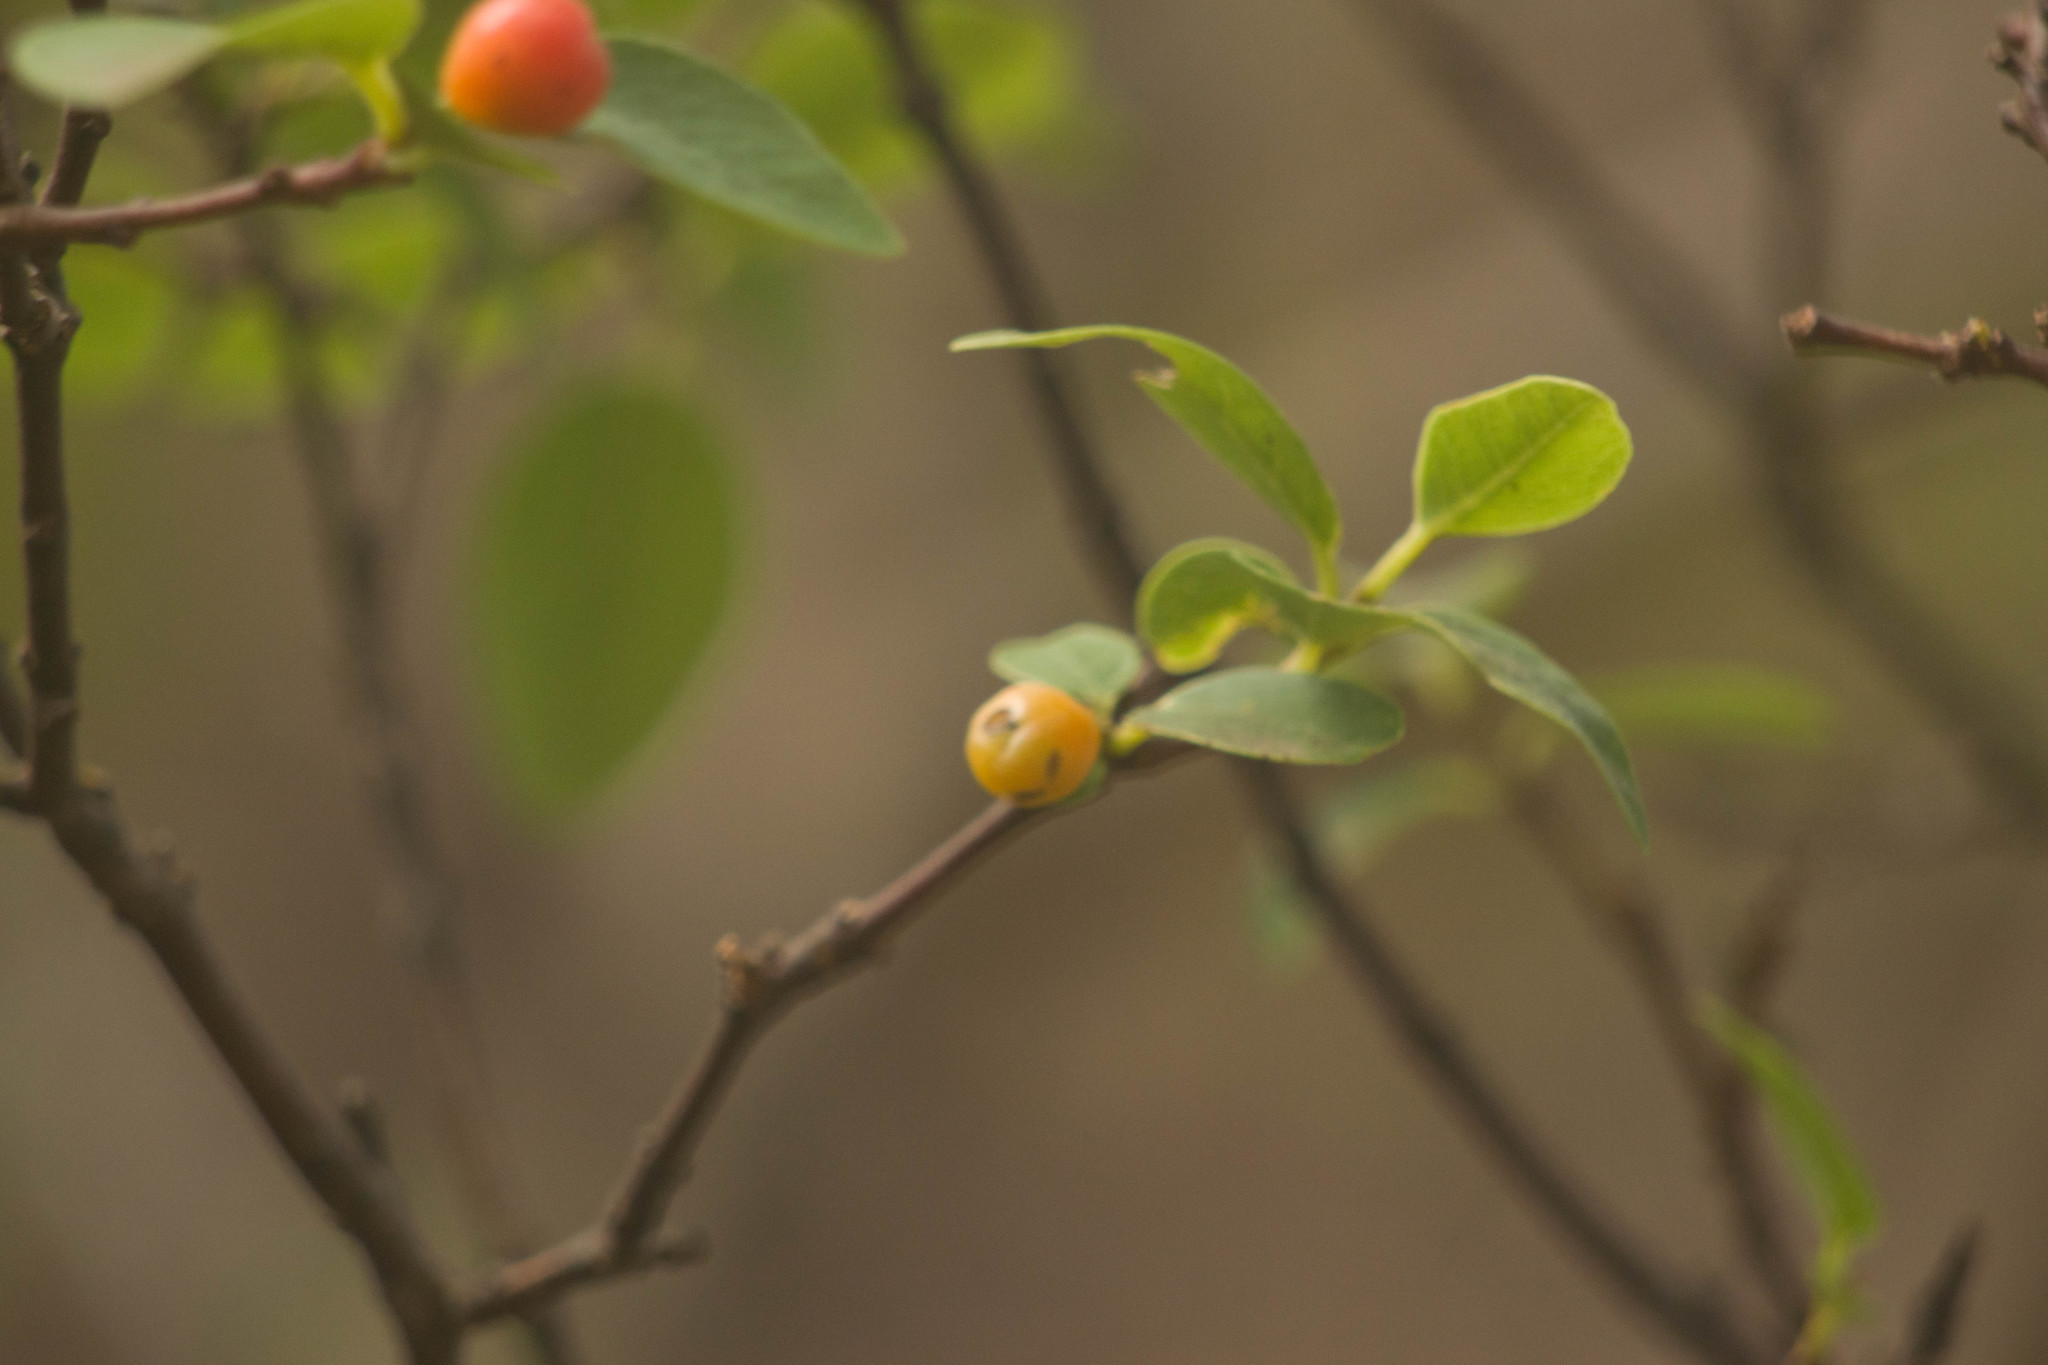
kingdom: Plantae
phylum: Tracheophyta
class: Magnoliopsida
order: Malvales
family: Thymelaeaceae
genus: Wikstroemia
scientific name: Wikstroemia oahuensis
